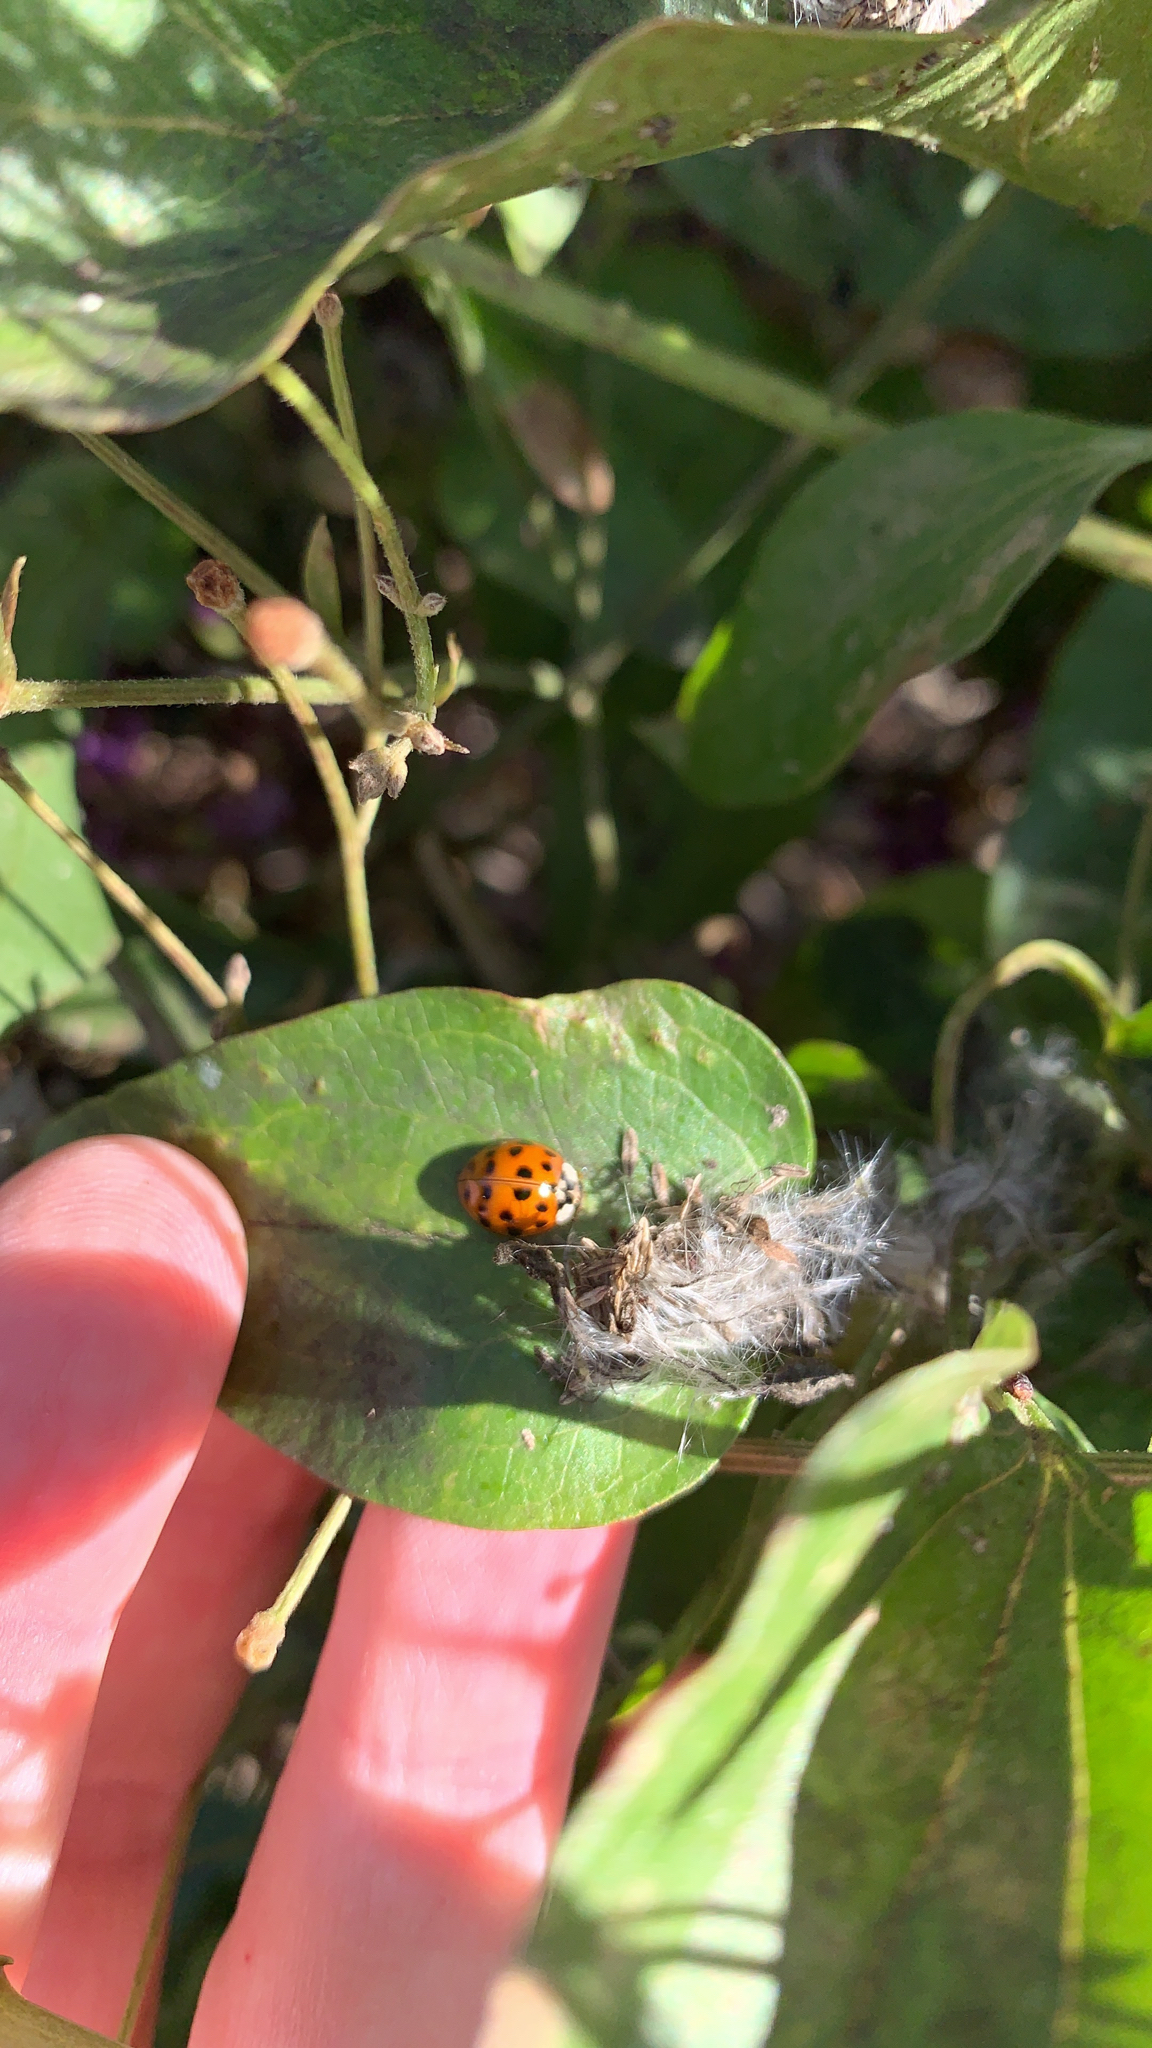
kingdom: Animalia
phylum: Arthropoda
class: Insecta
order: Coleoptera
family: Coccinellidae
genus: Harmonia
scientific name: Harmonia axyridis
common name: Harlequin ladybird
